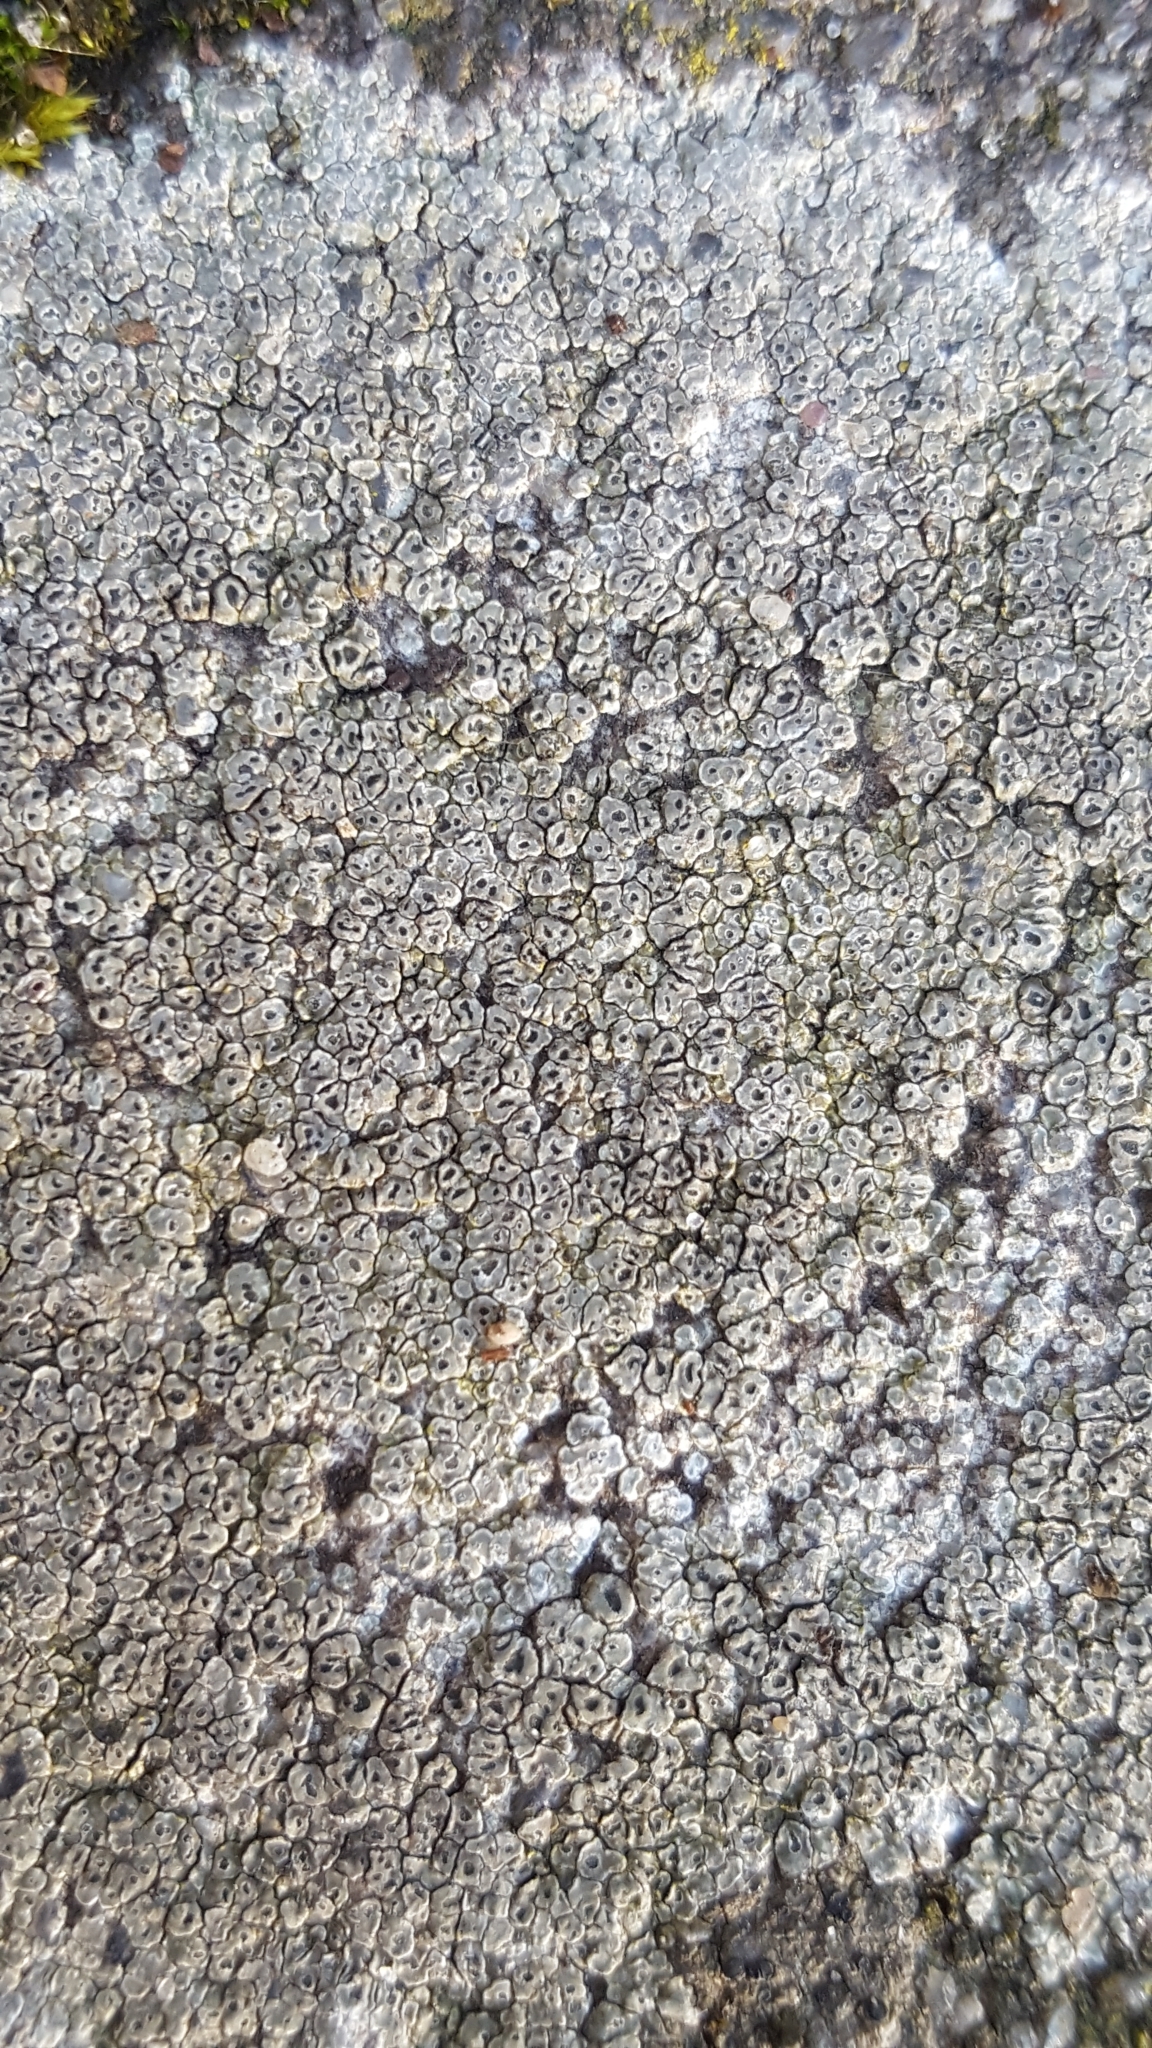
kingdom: Fungi
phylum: Ascomycota
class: Lecanoromycetes
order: Pertusariales
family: Megasporaceae
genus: Circinaria
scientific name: Circinaria contorta
